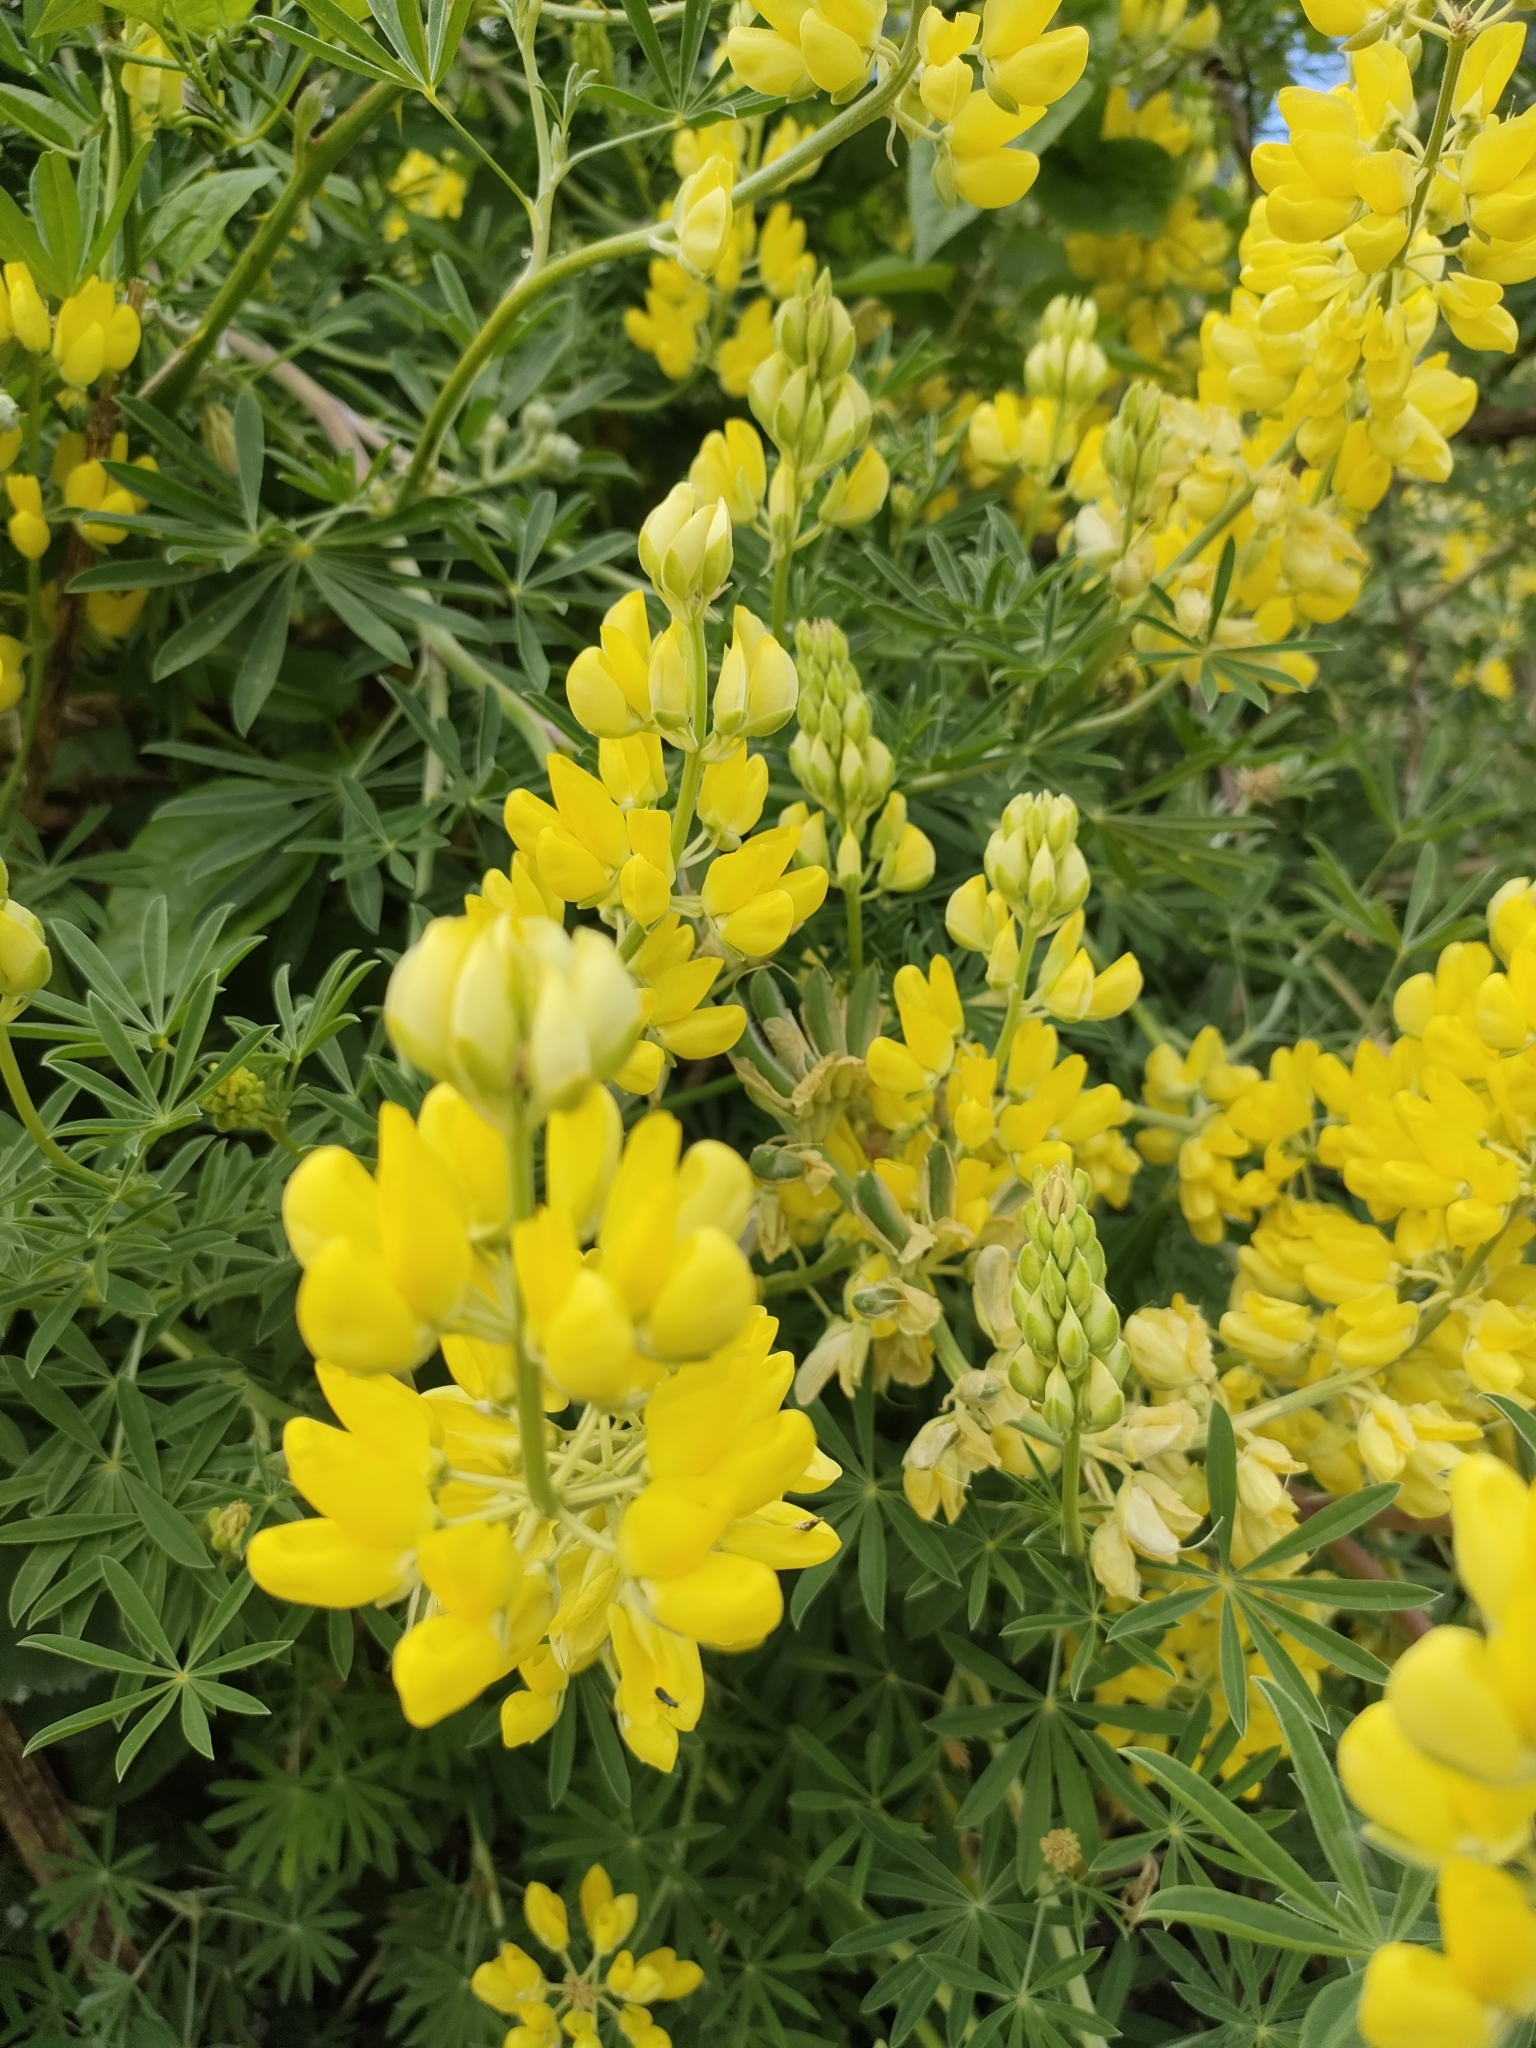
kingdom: Plantae
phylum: Tracheophyta
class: Magnoliopsida
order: Fabales
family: Fabaceae
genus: Lupinus
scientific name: Lupinus arboreus
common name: Yellow bush lupine
